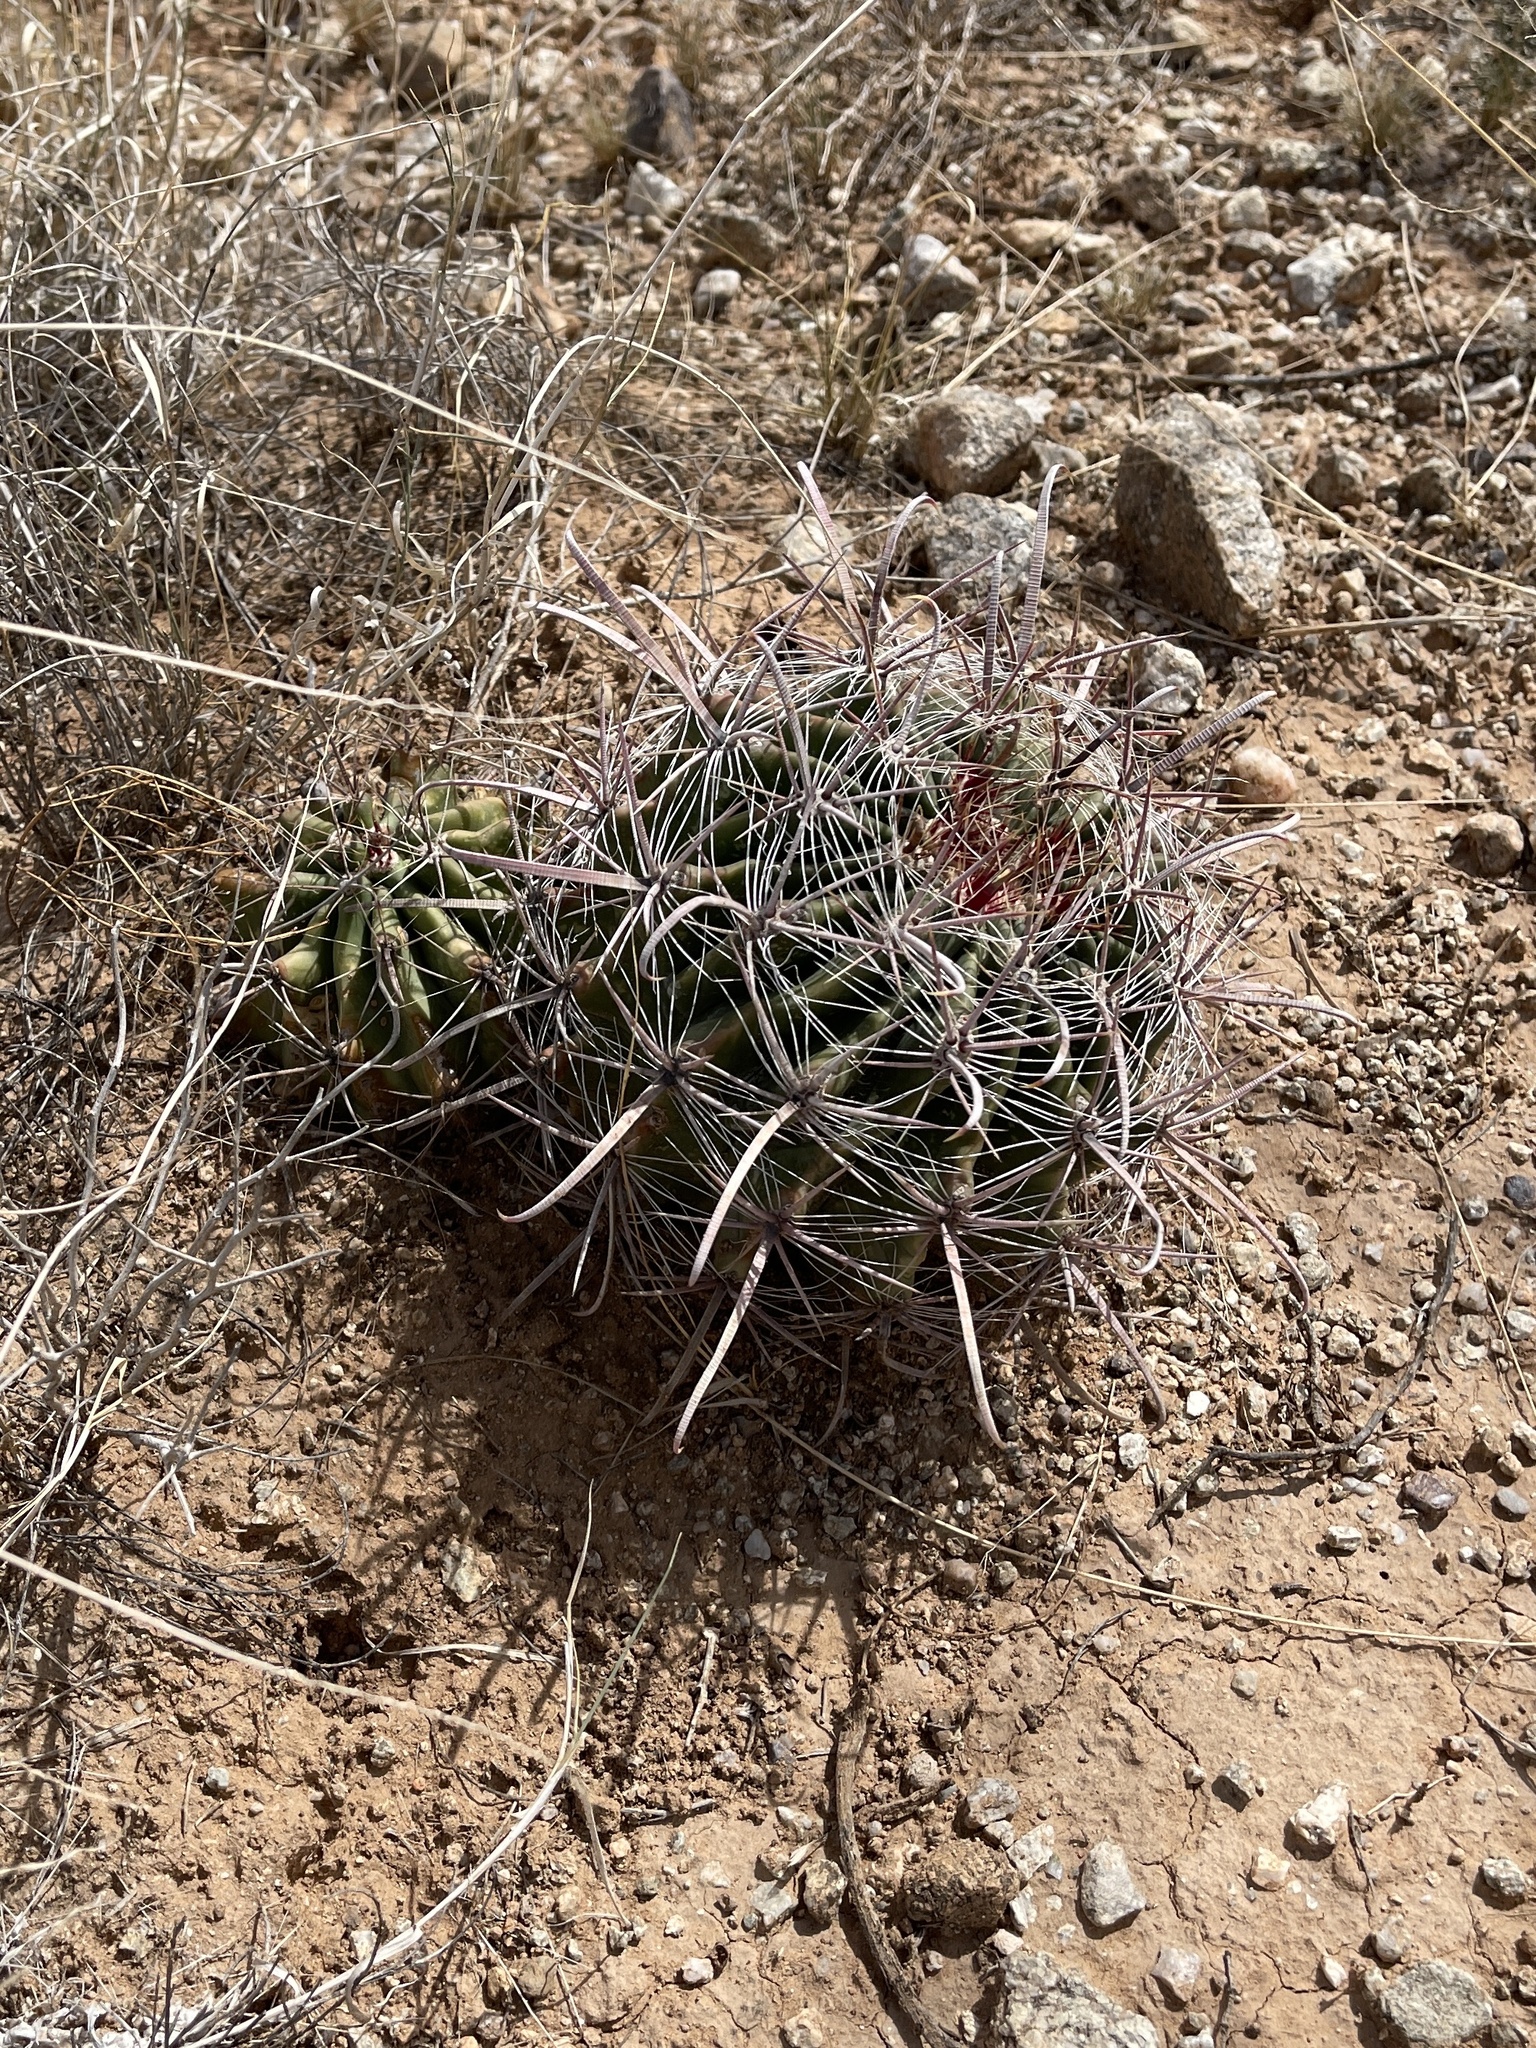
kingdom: Plantae
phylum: Tracheophyta
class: Magnoliopsida
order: Caryophyllales
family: Cactaceae
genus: Ferocactus
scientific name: Ferocactus wislizeni
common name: Candy barrel cactus
